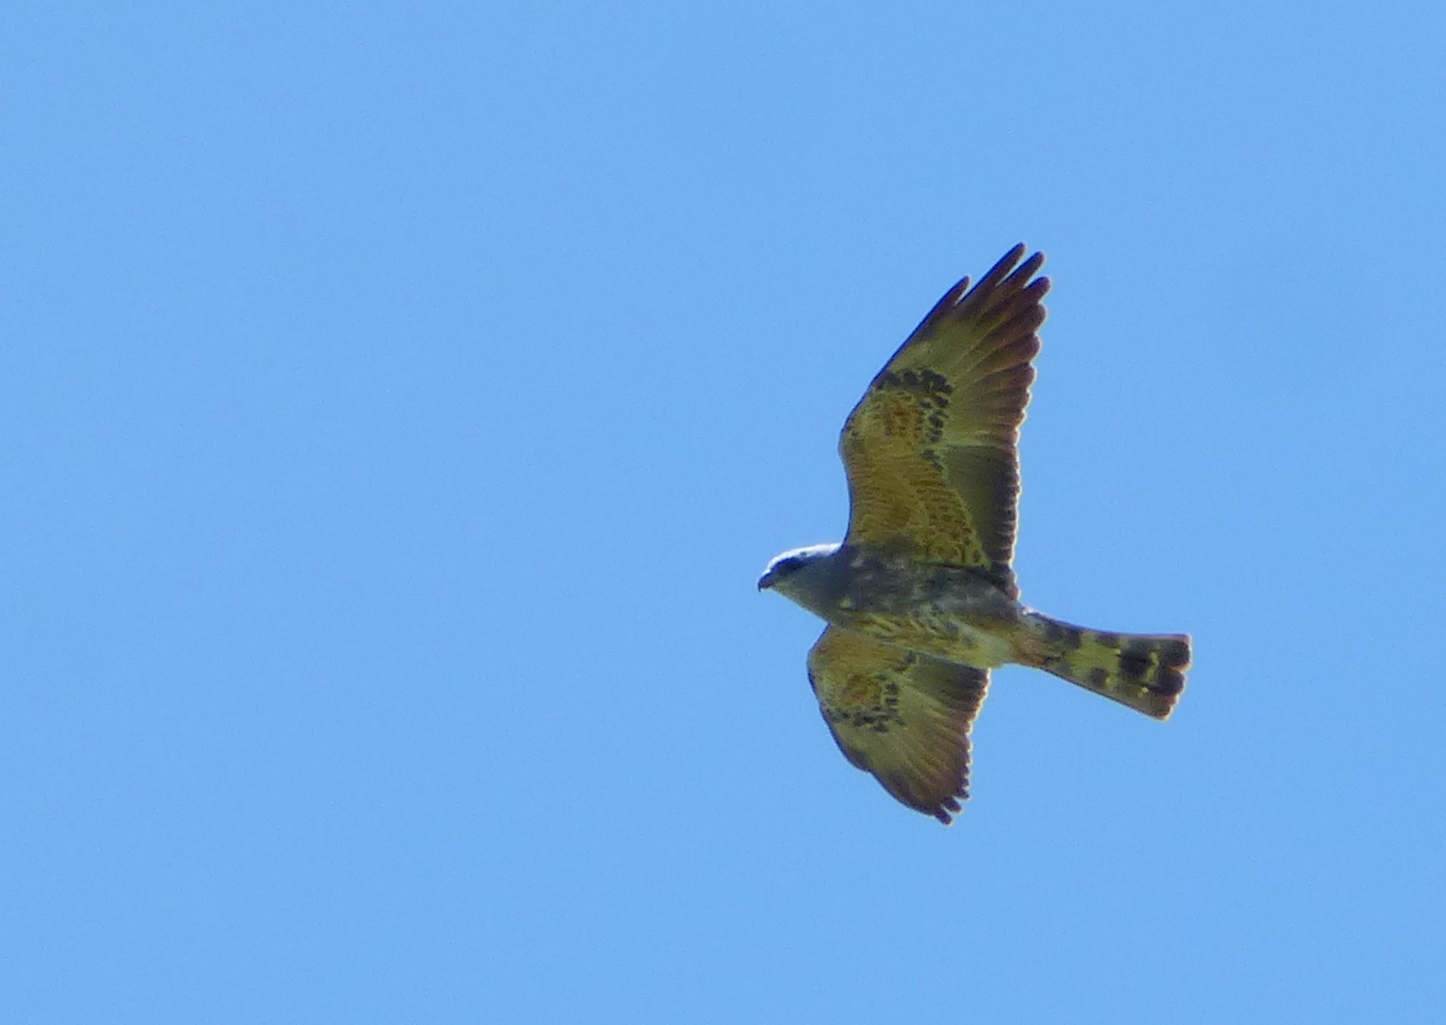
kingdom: Animalia
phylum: Chordata
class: Aves
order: Accipitriformes
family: Accipitridae
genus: Ictinia
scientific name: Ictinia mississippiensis
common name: Mississippi kite
